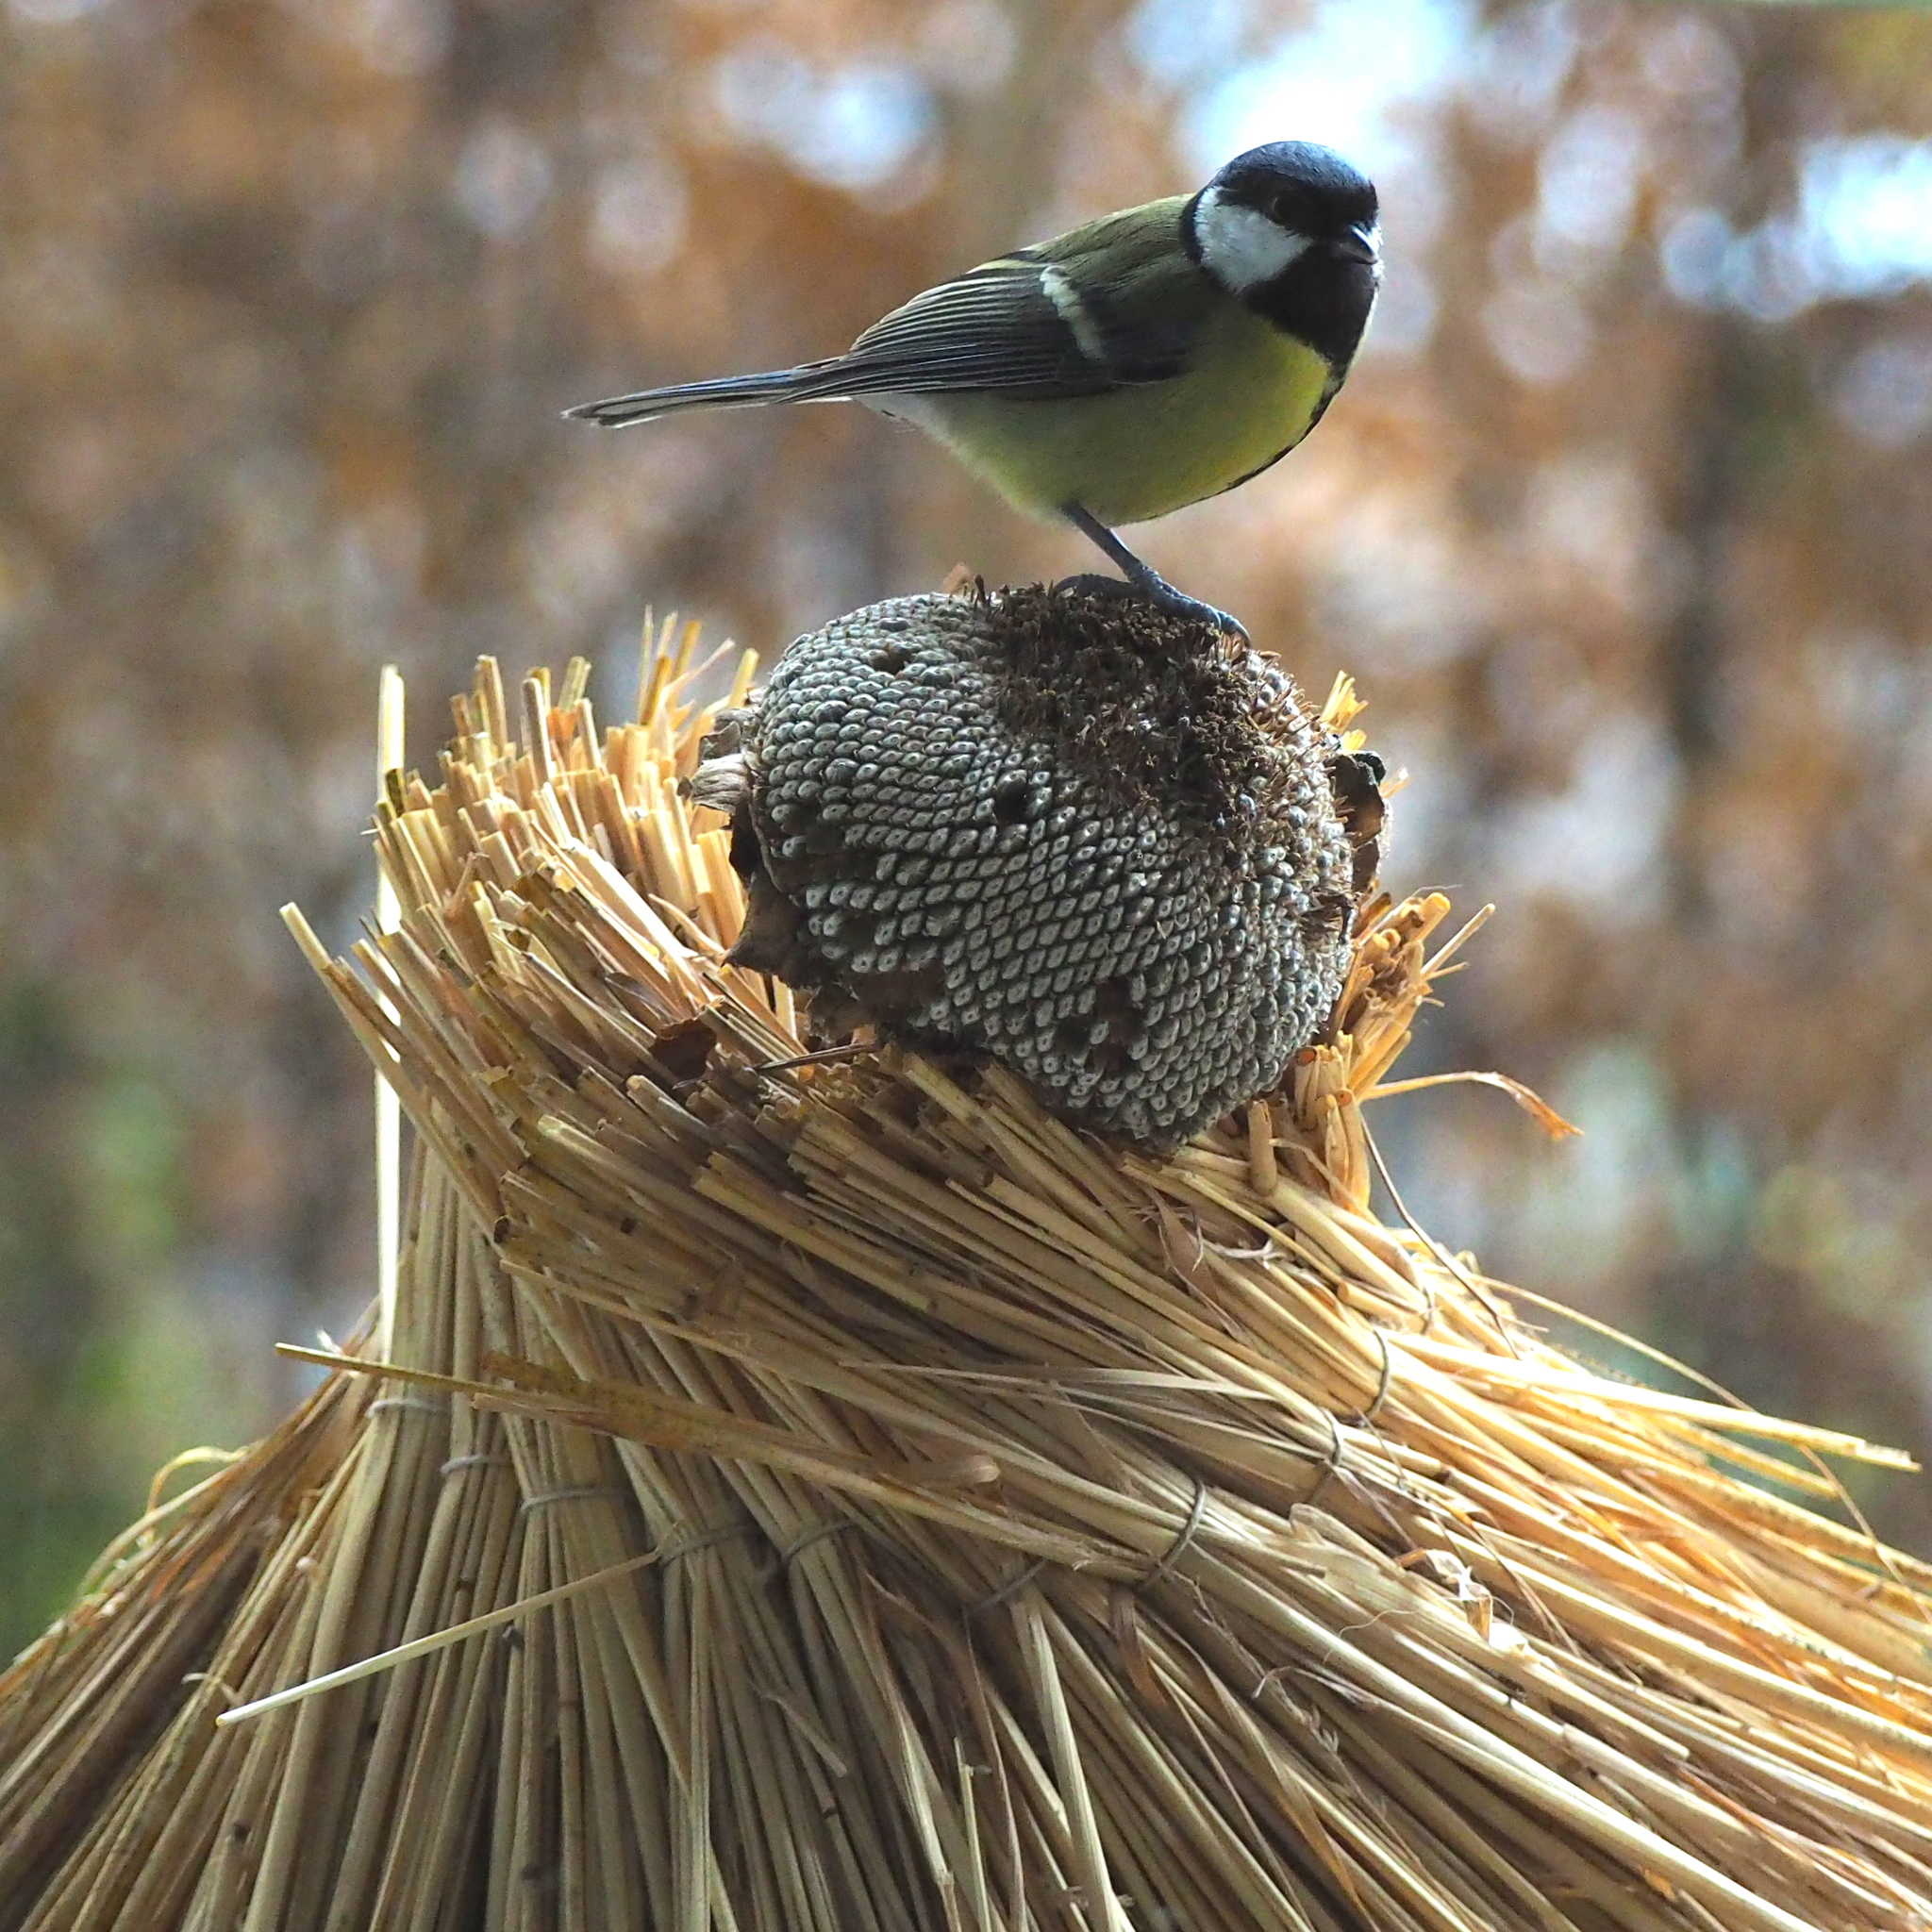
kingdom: Animalia
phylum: Chordata
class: Aves
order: Passeriformes
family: Paridae
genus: Parus
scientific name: Parus major
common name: Great tit
